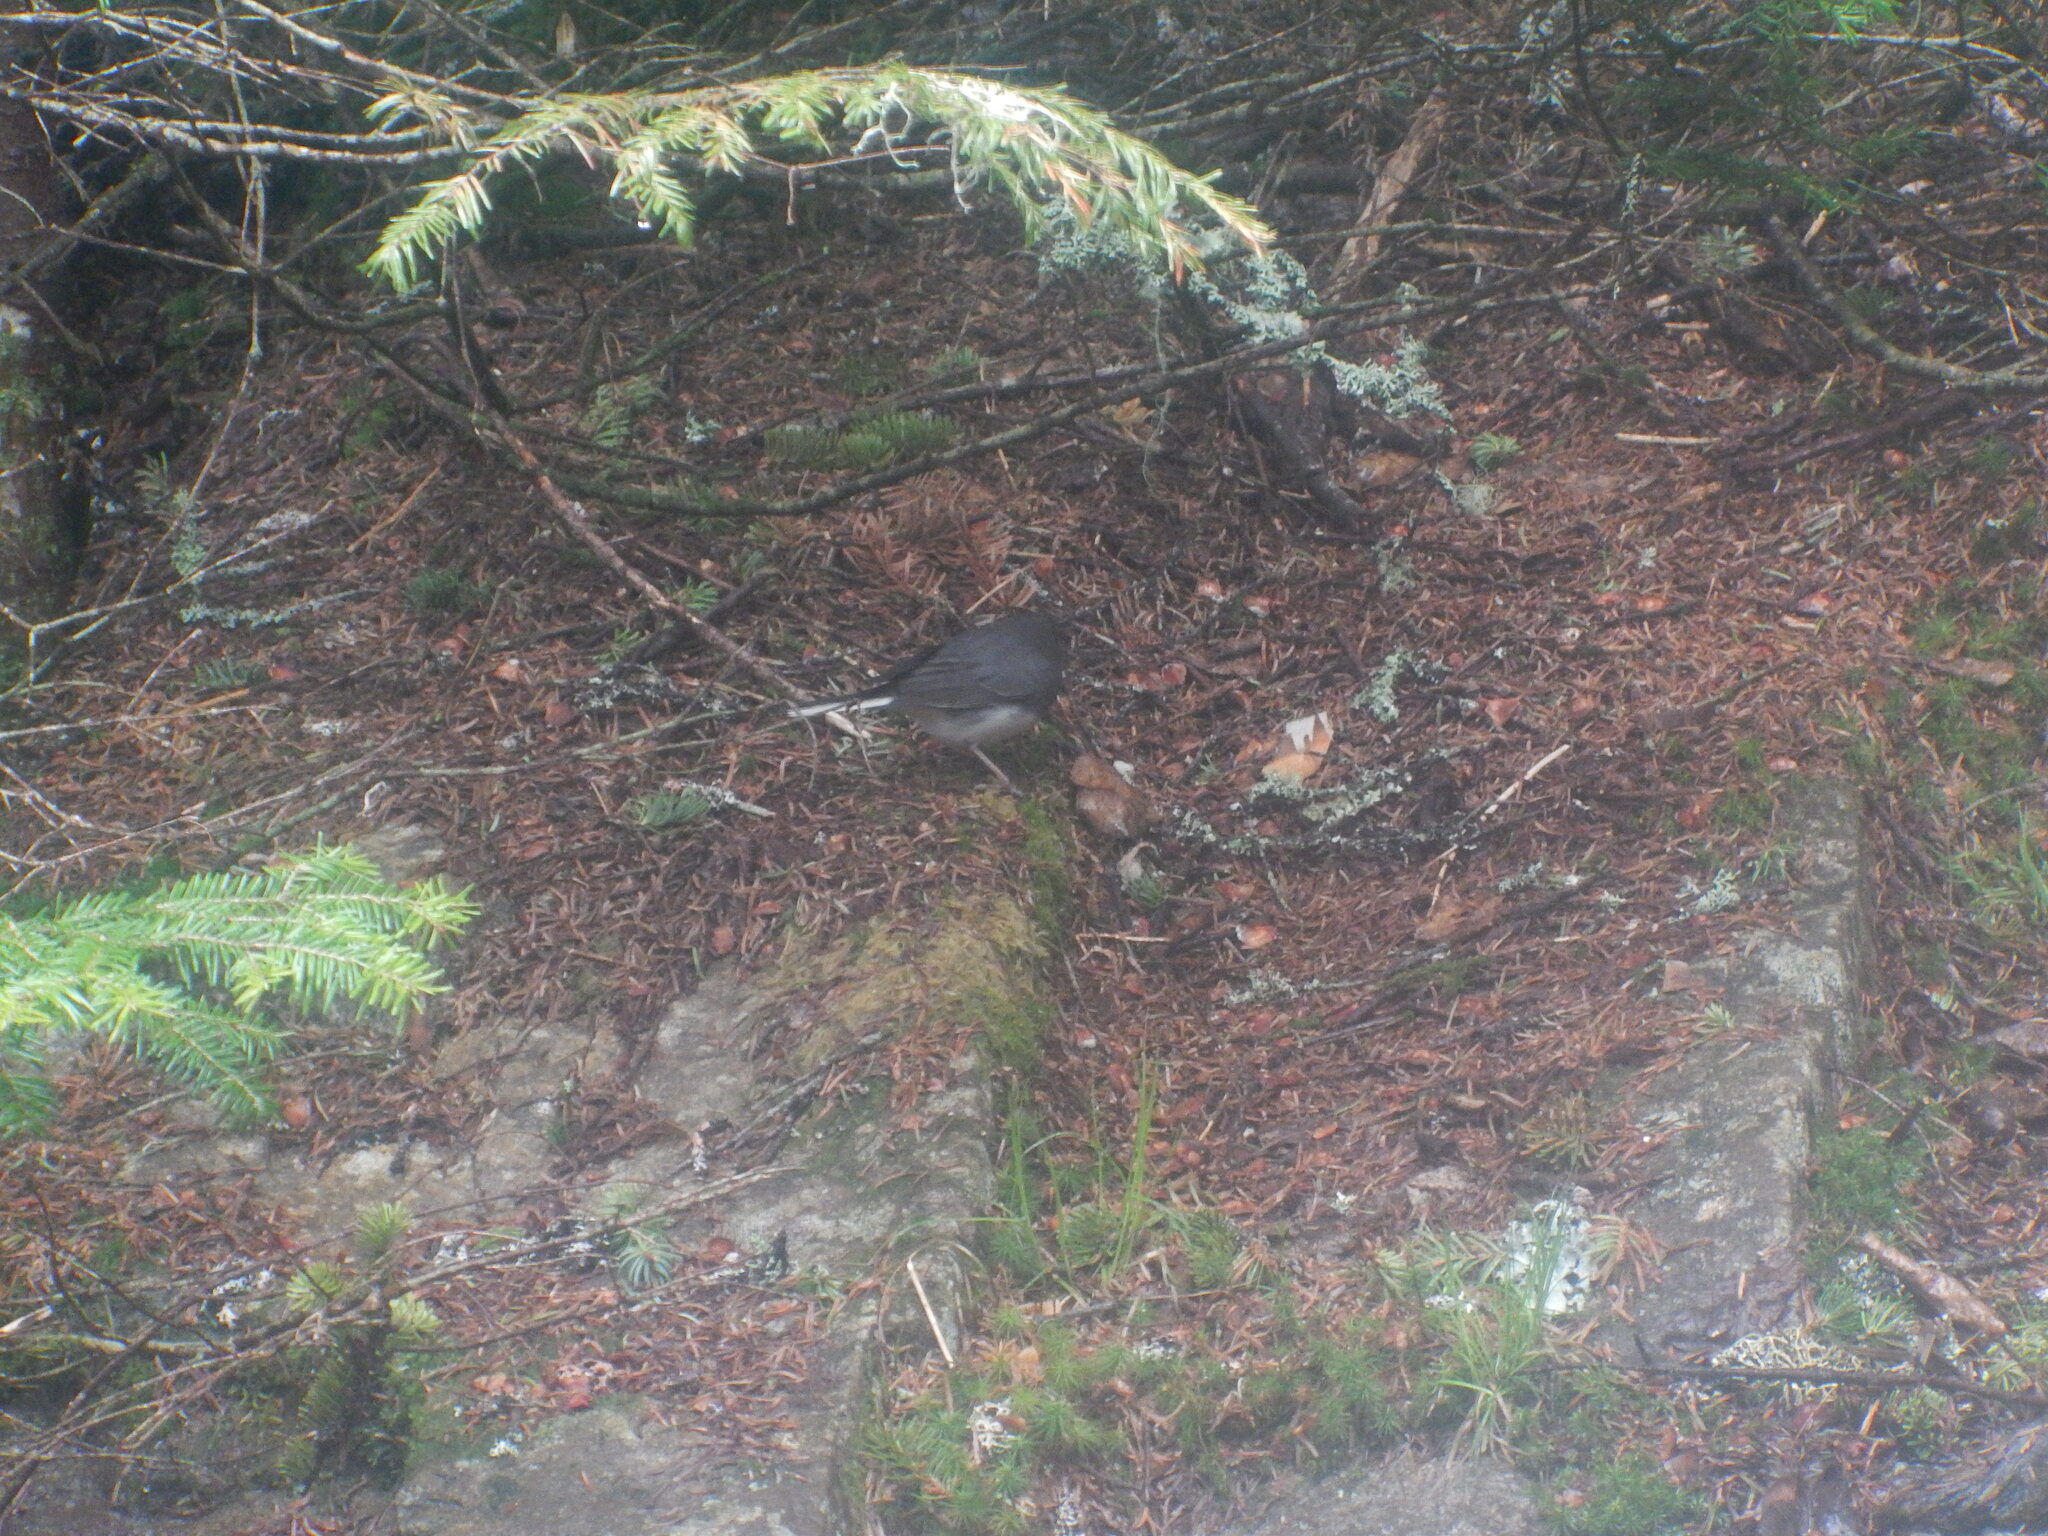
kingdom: Animalia
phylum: Chordata
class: Aves
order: Passeriformes
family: Passerellidae
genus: Junco
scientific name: Junco hyemalis
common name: Dark-eyed junco
